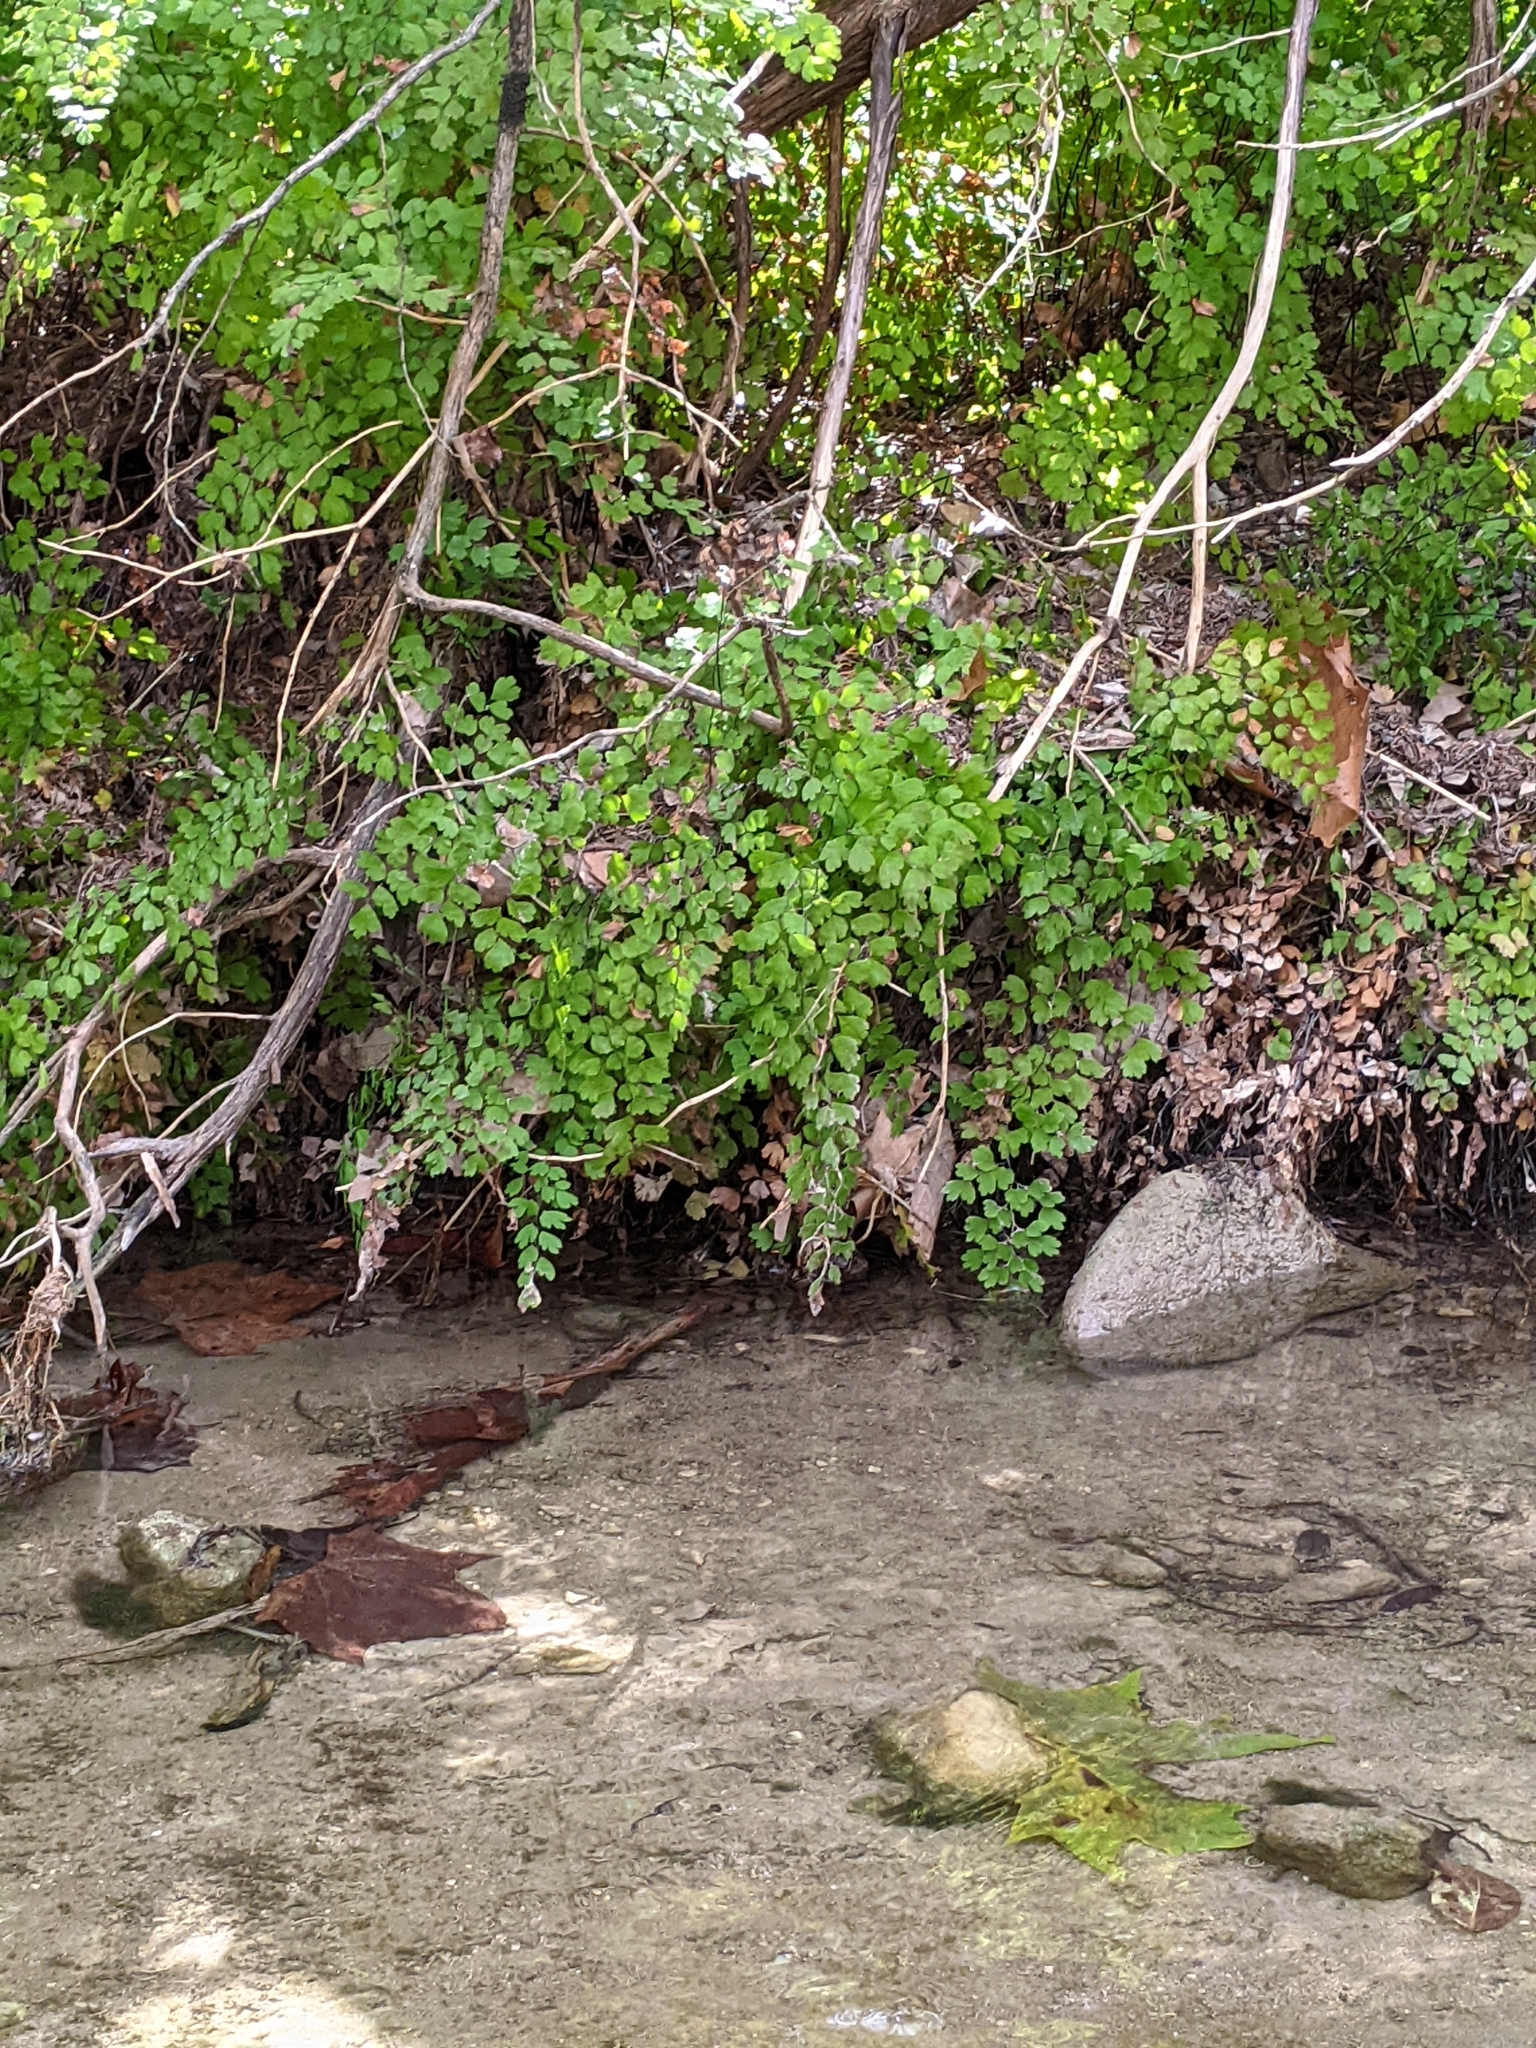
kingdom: Plantae
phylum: Tracheophyta
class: Polypodiopsida
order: Polypodiales
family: Pteridaceae
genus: Adiantum
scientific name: Adiantum capillus-veneris
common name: Maidenhair fern
